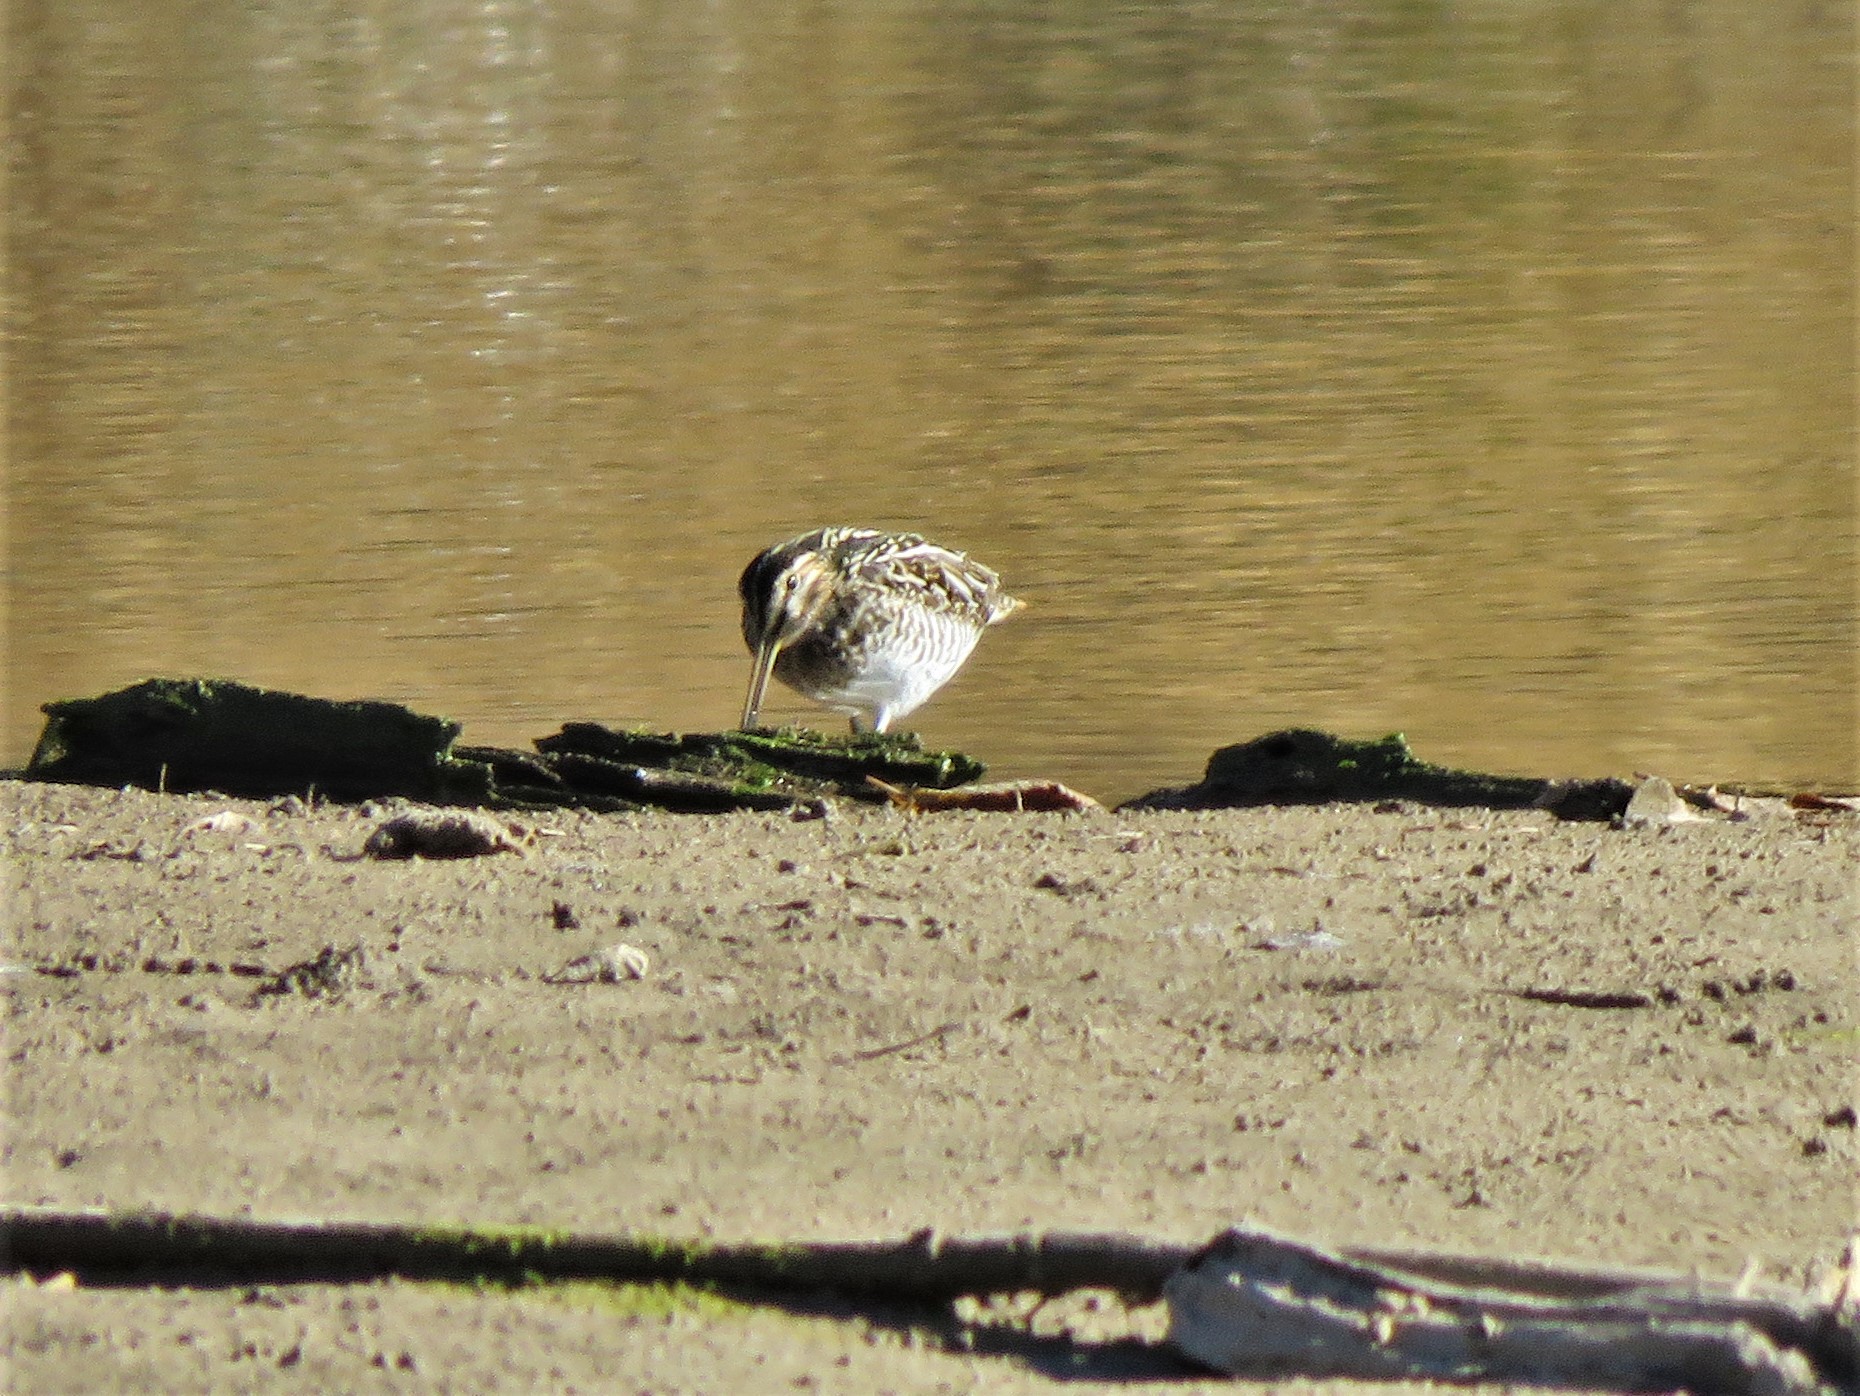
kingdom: Animalia
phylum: Chordata
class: Aves
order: Charadriiformes
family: Scolopacidae
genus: Gallinago
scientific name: Gallinago delicata
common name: Wilson's snipe
